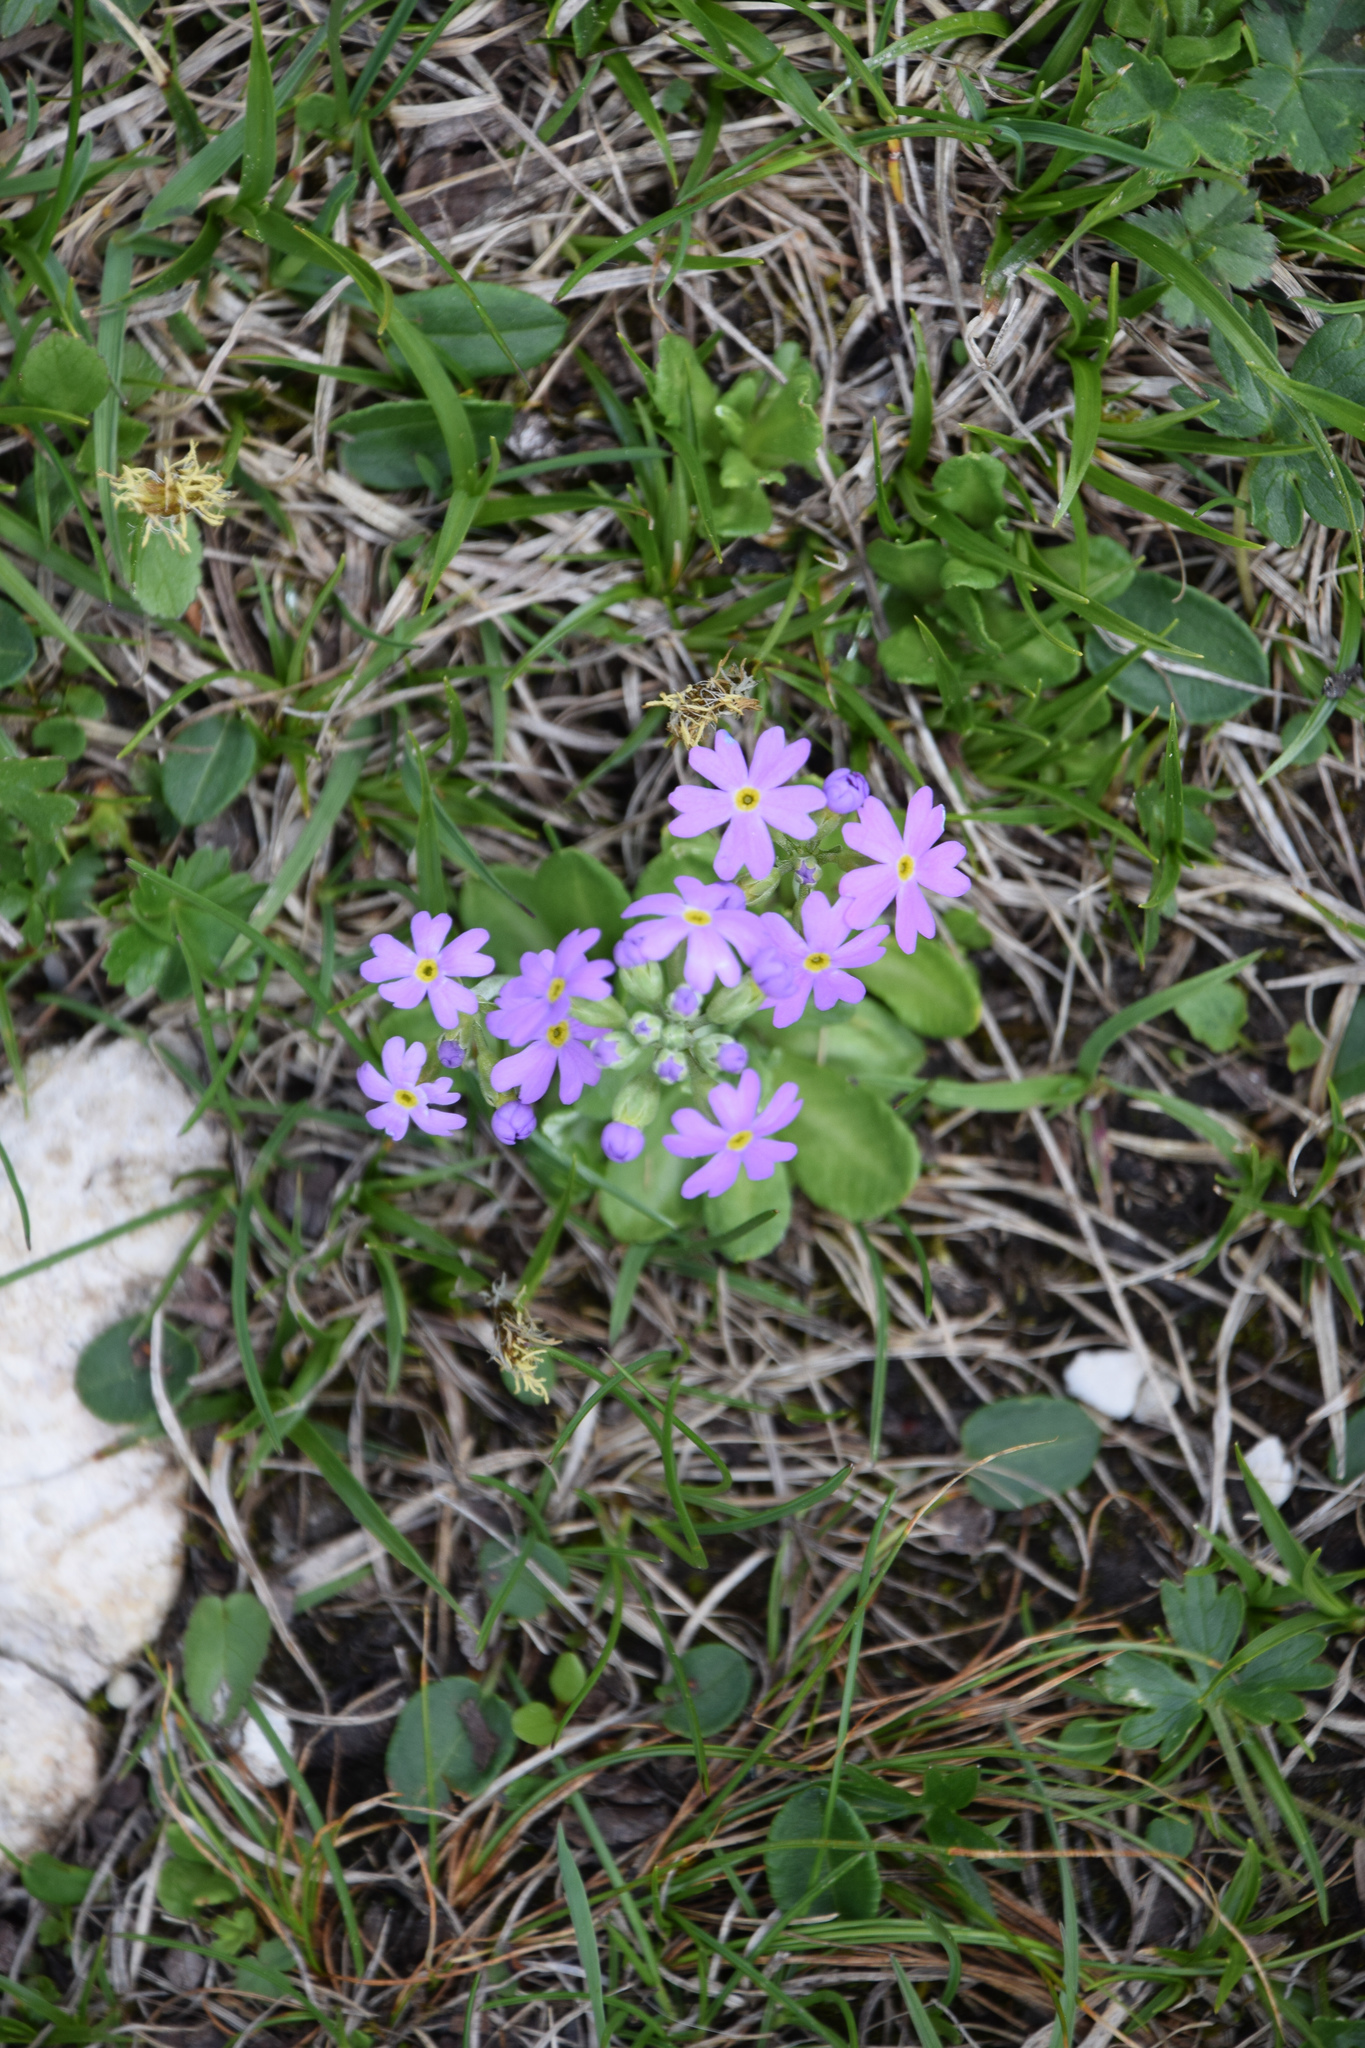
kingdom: Plantae
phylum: Tracheophyta
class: Magnoliopsida
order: Ericales
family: Primulaceae
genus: Primula
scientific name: Primula farinosa
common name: Bird's-eye primrose
